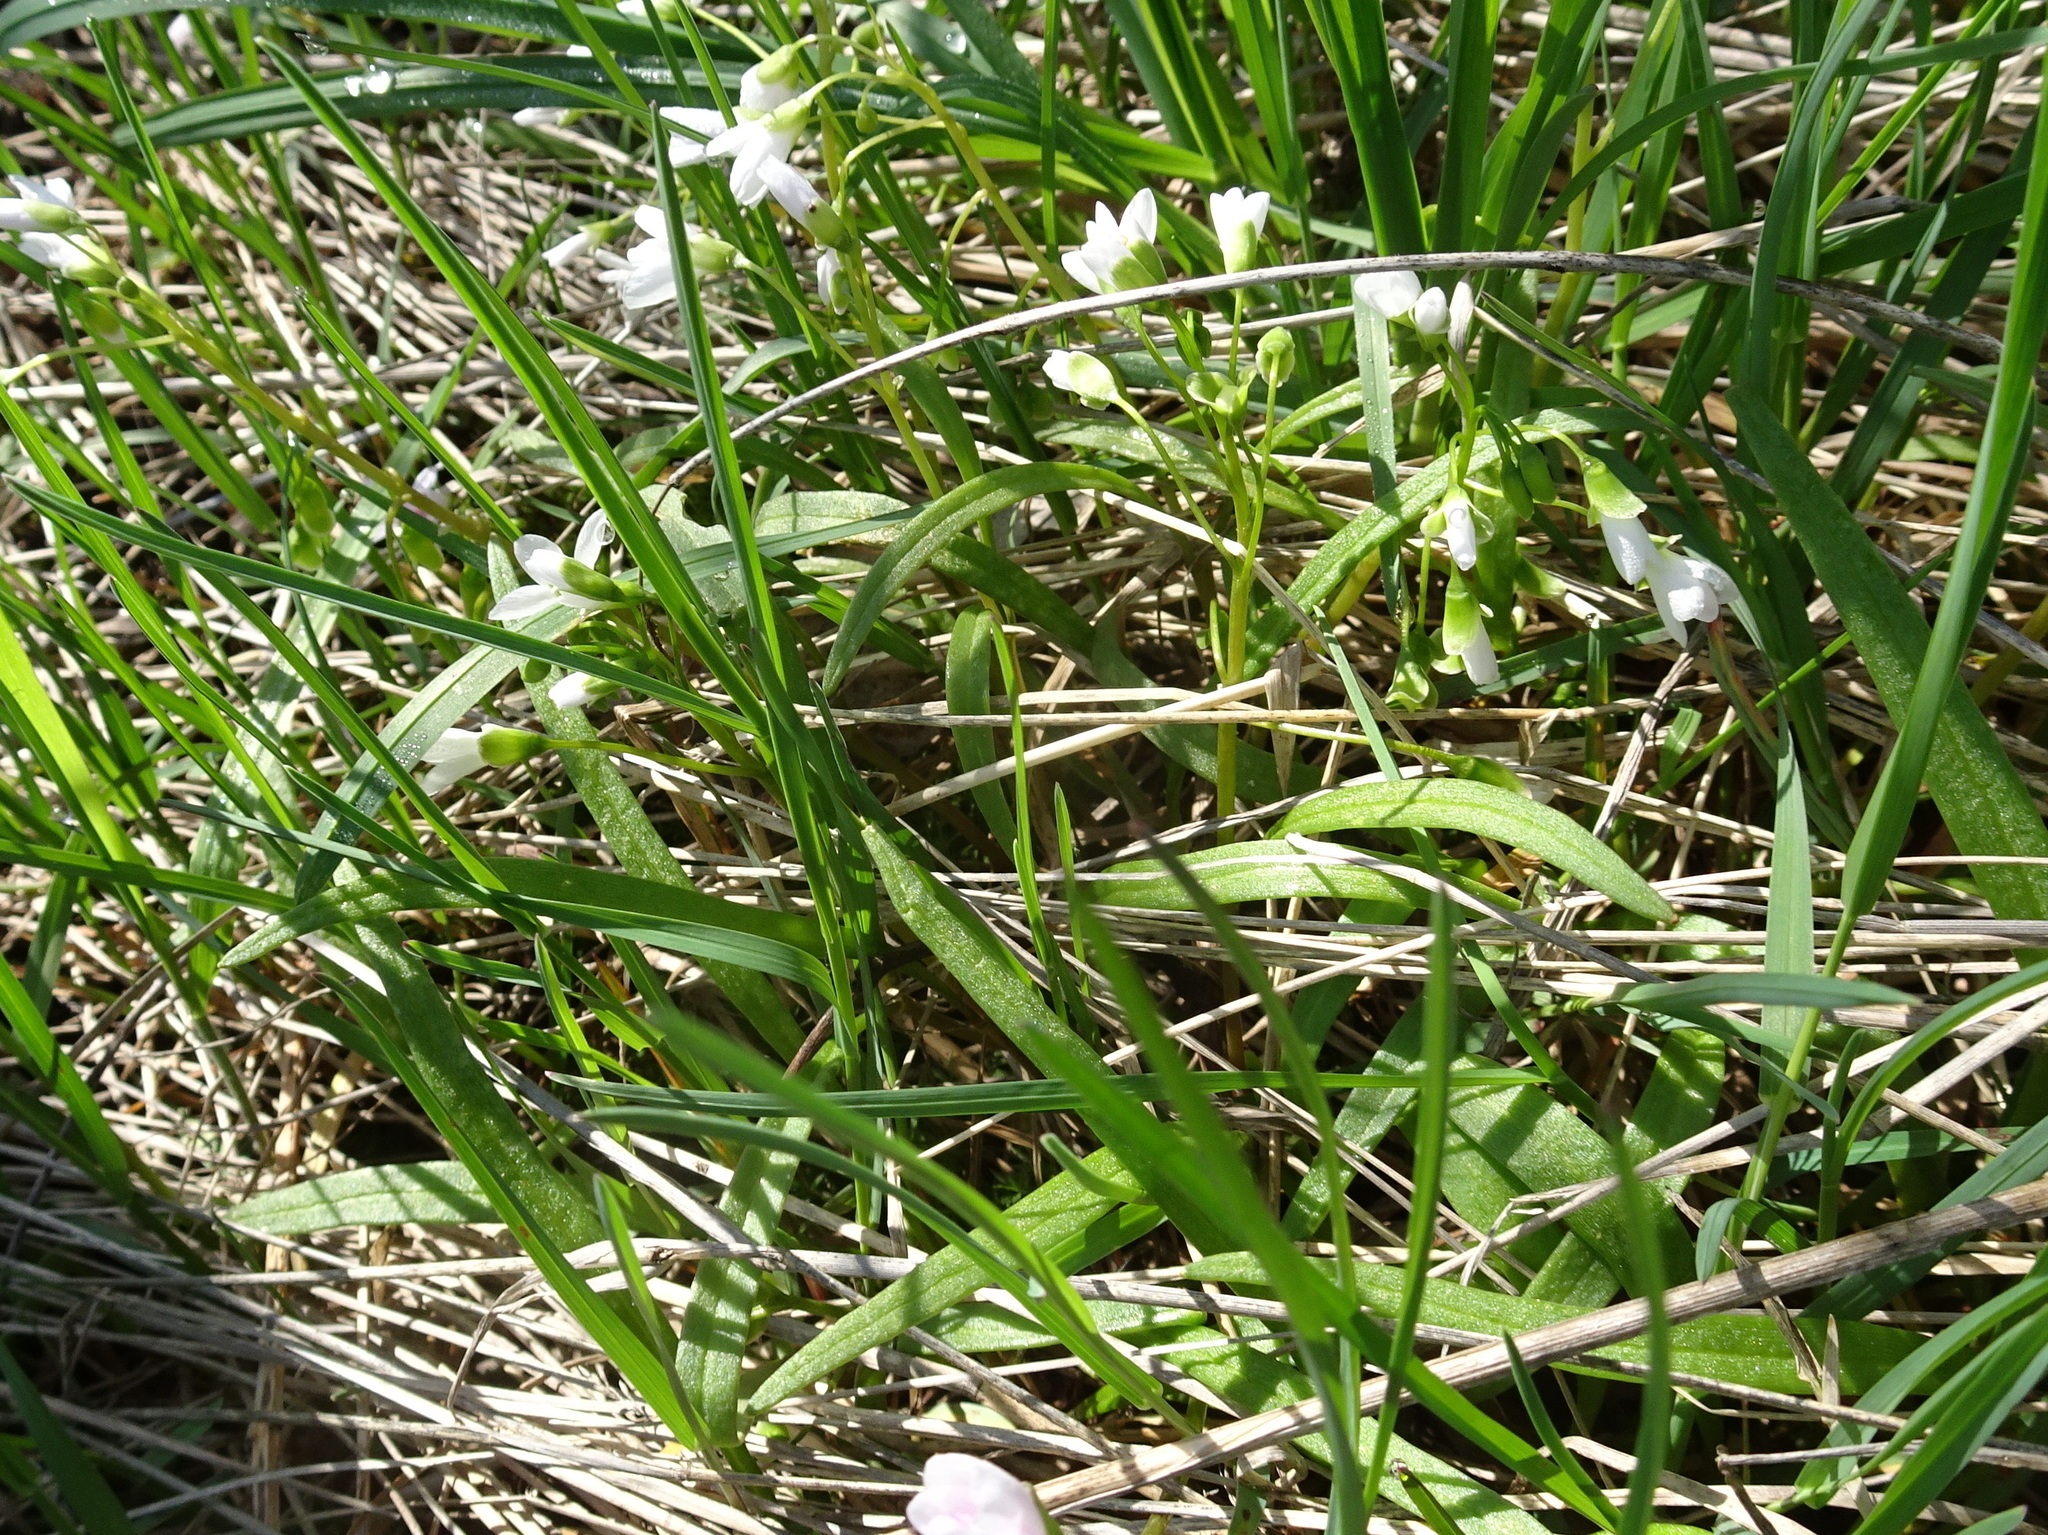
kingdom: Plantae
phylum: Tracheophyta
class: Magnoliopsida
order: Caryophyllales
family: Montiaceae
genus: Claytonia
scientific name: Claytonia virginica
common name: Virginia springbeauty
